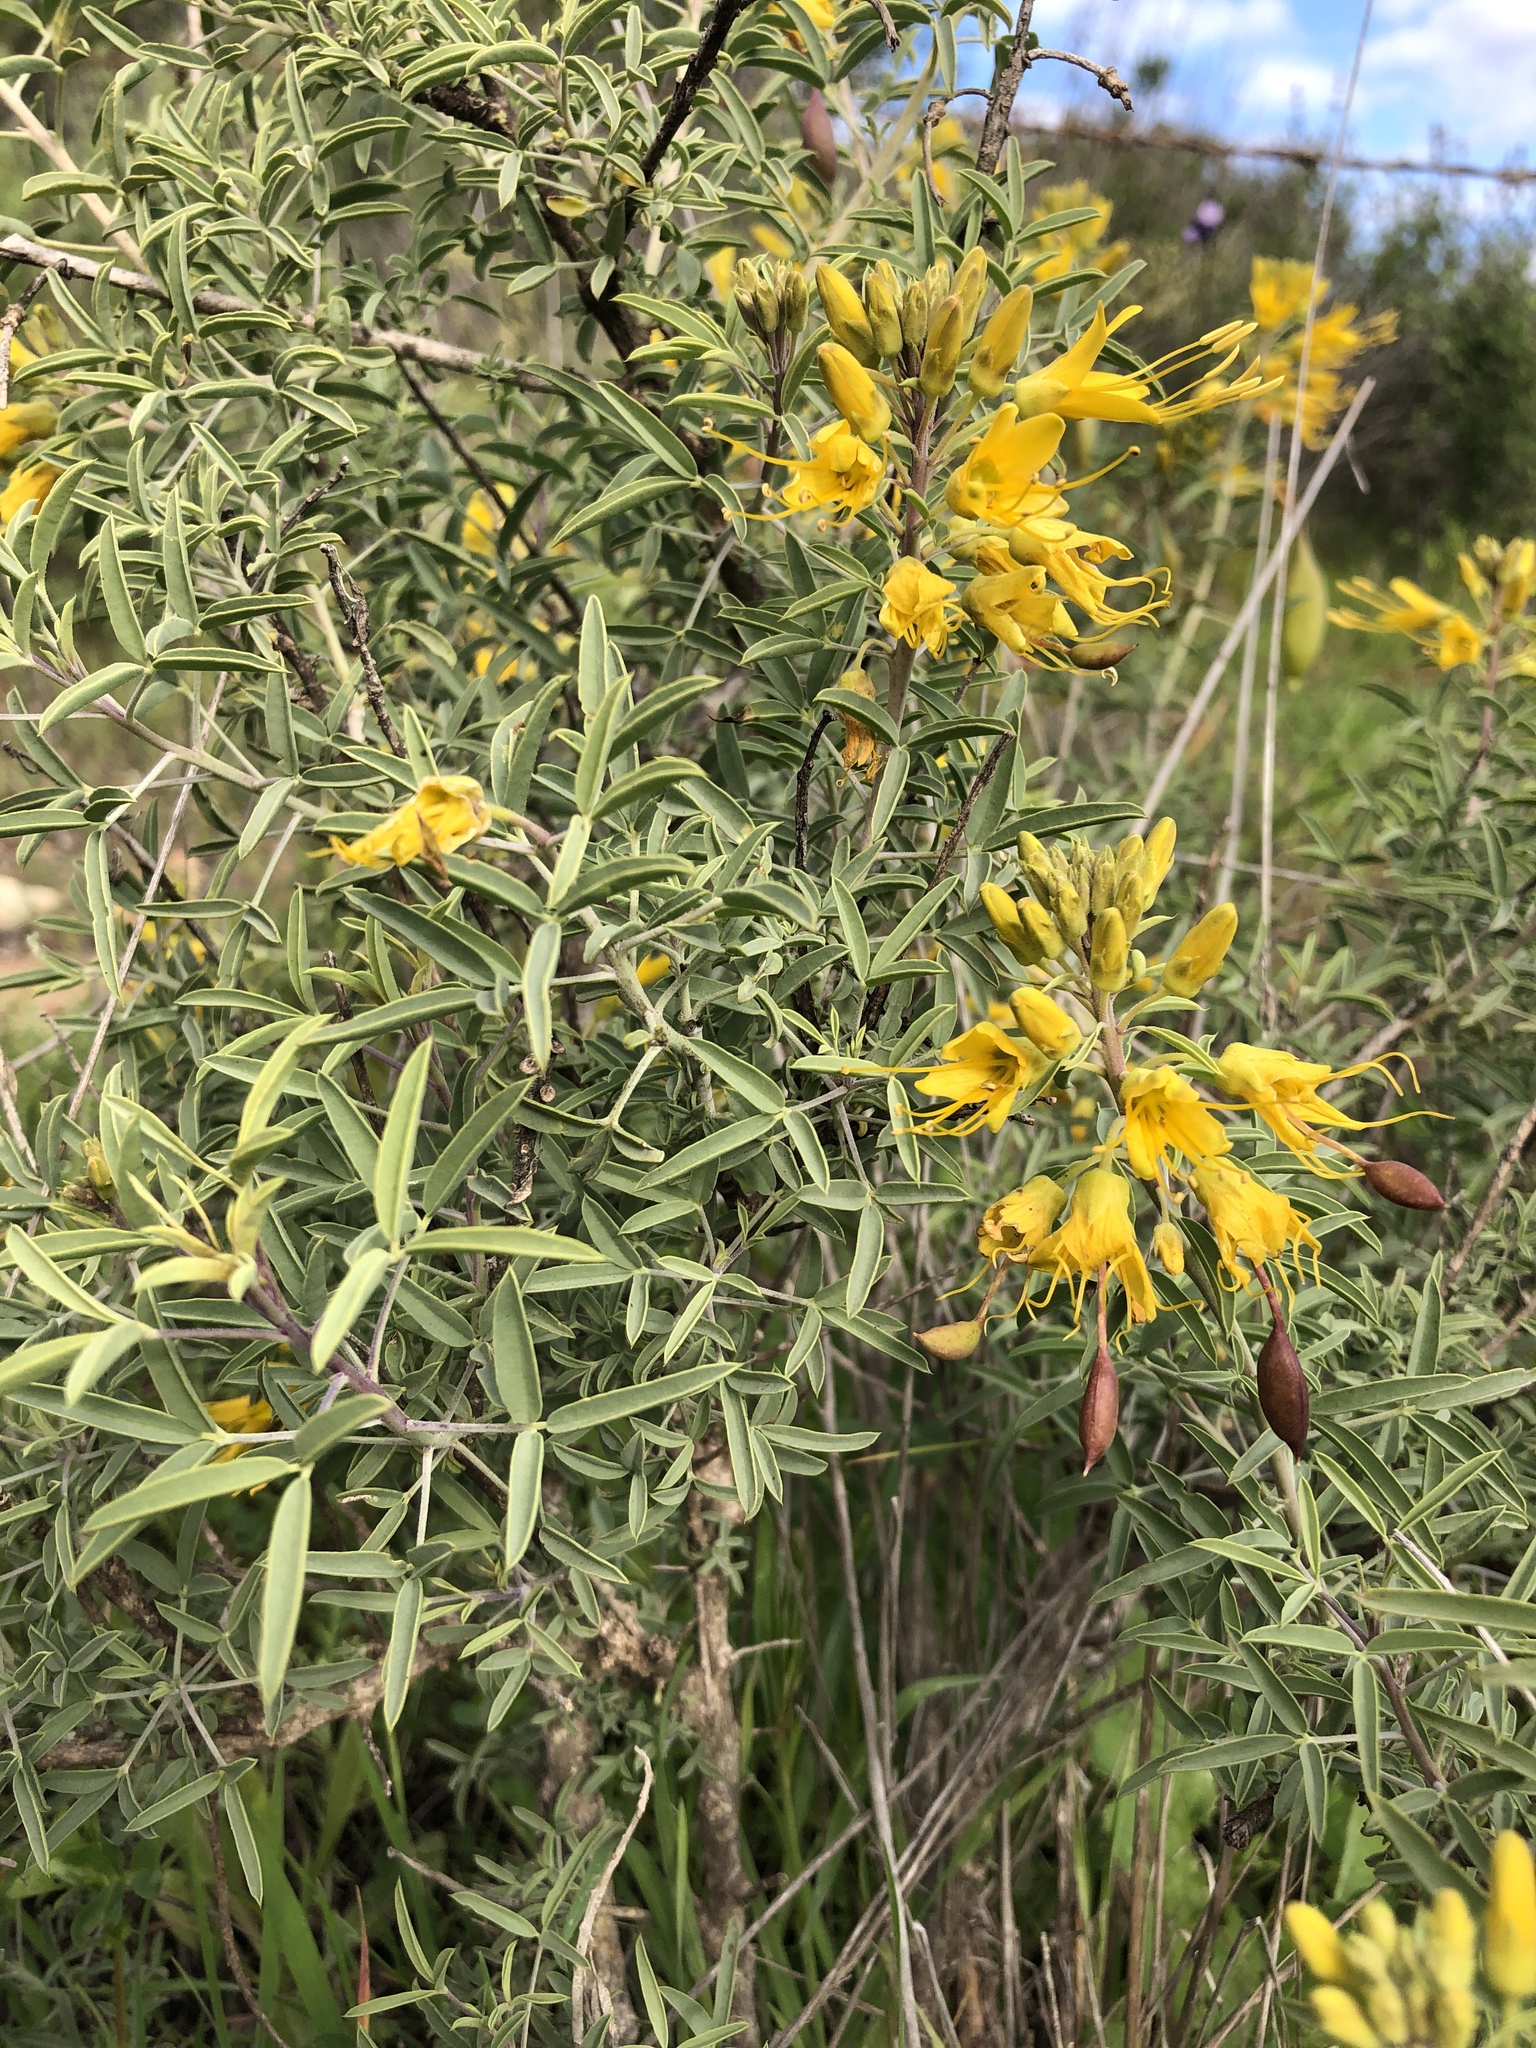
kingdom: Plantae
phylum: Tracheophyta
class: Magnoliopsida
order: Brassicales
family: Cleomaceae
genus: Cleomella
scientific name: Cleomella arborea
